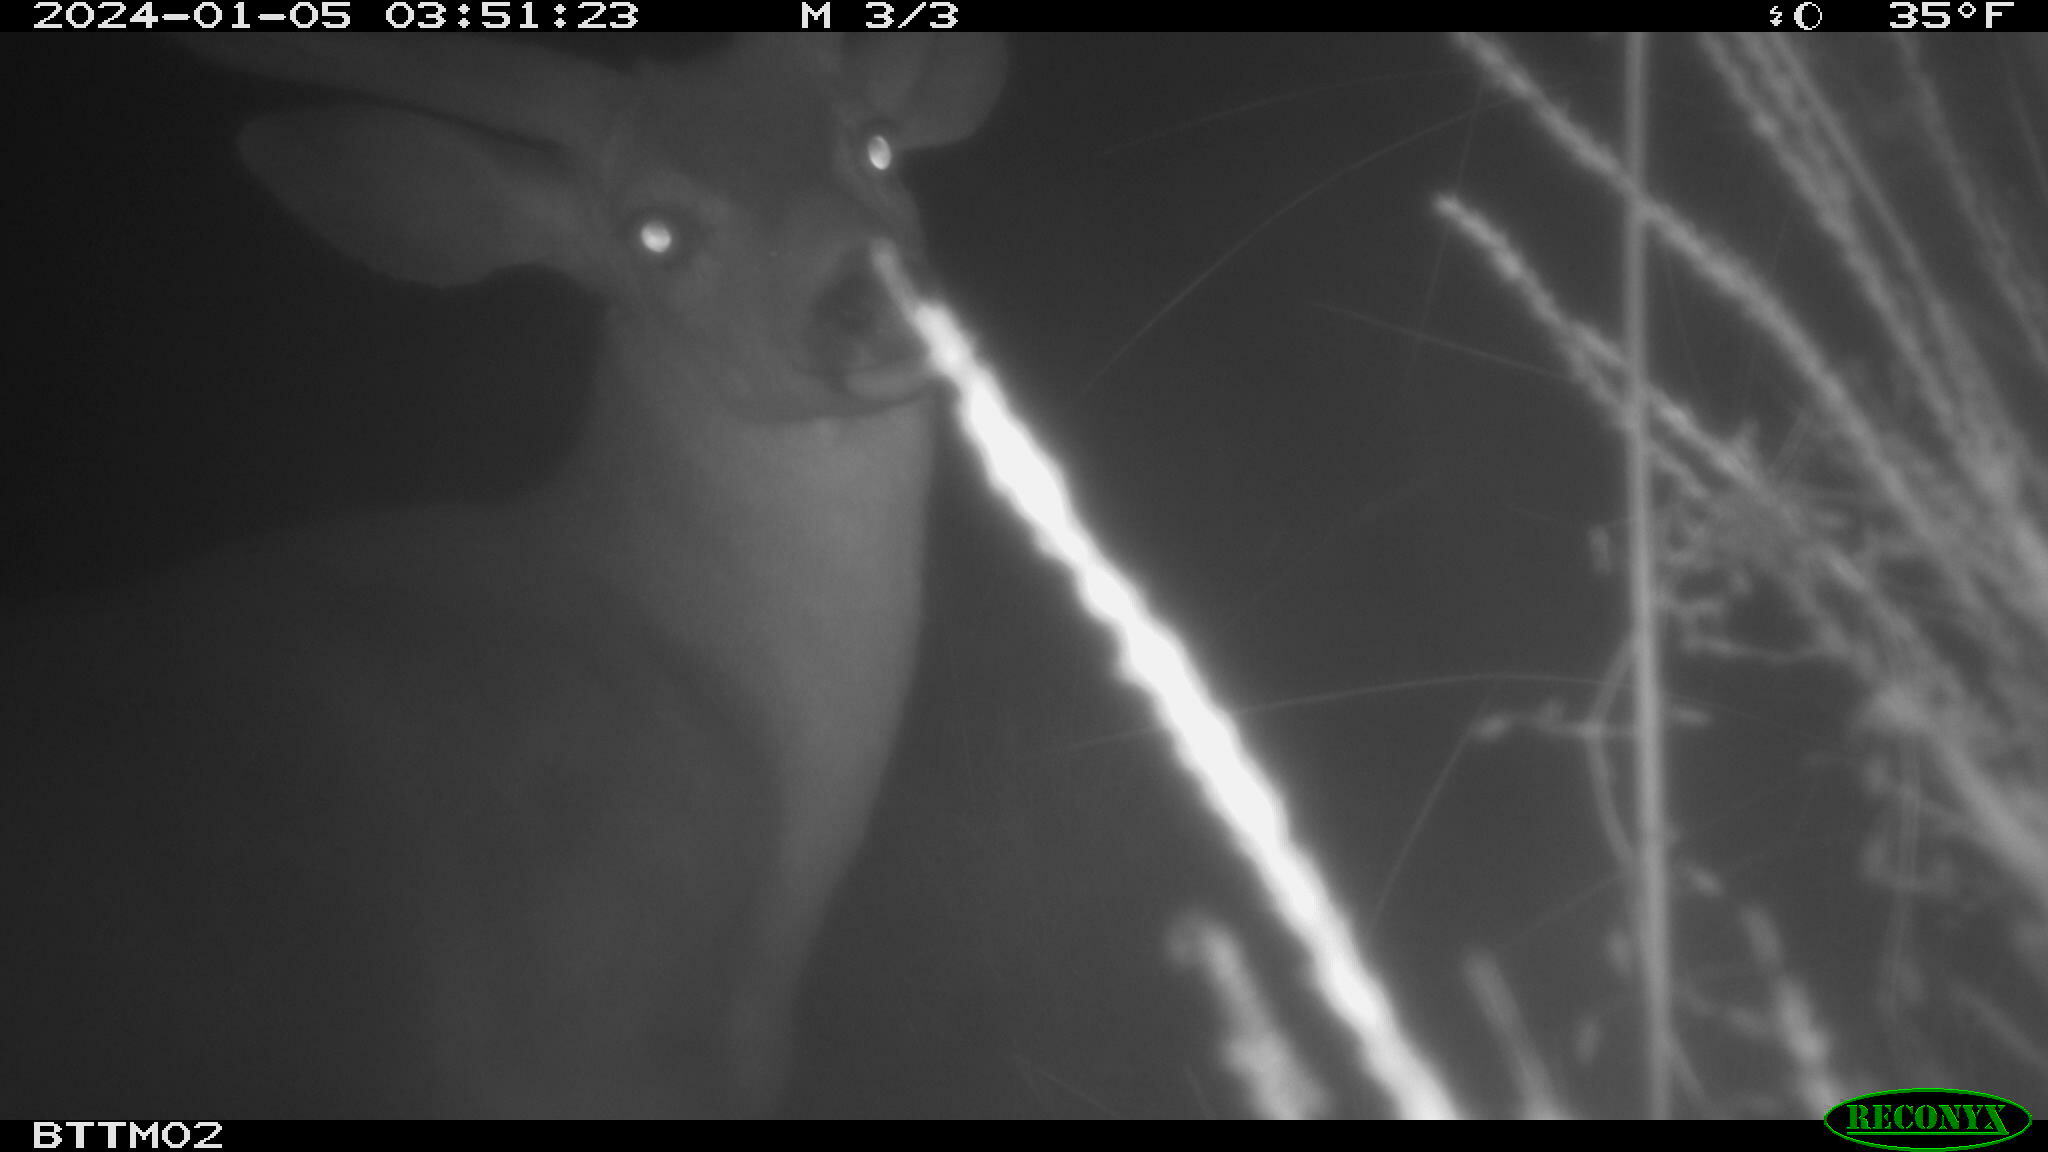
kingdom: Animalia
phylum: Chordata
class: Mammalia
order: Artiodactyla
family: Cervidae
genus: Odocoileus
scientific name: Odocoileus hemionus
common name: Mule deer
